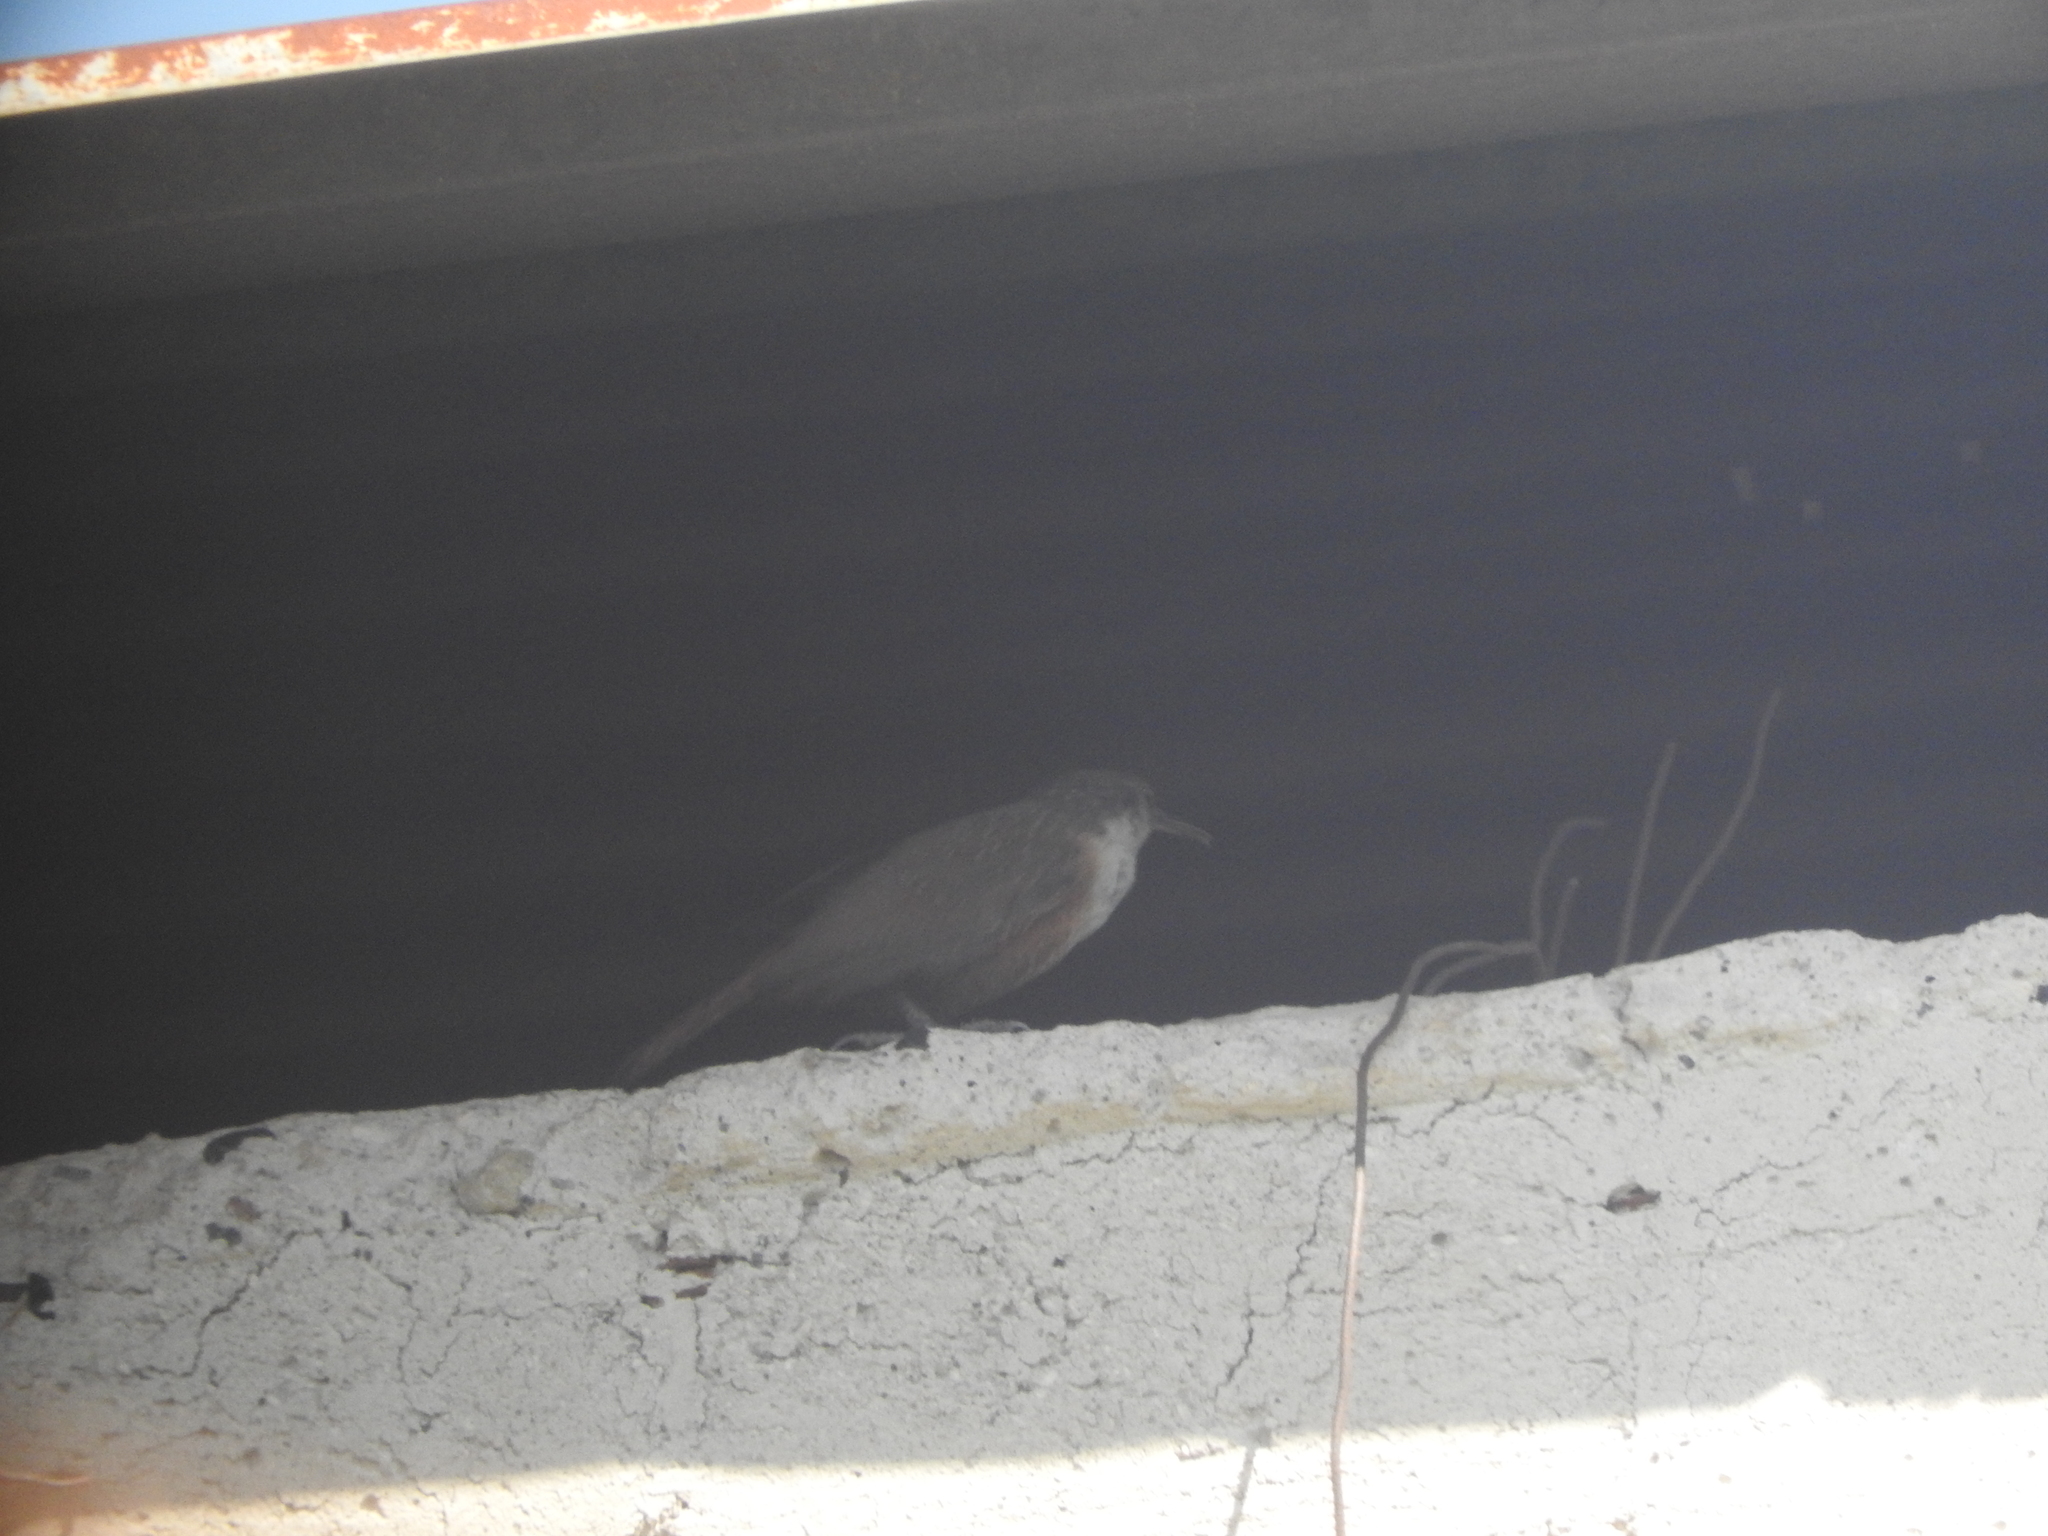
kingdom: Animalia
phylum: Chordata
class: Aves
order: Passeriformes
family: Troglodytidae
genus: Catherpes
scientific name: Catherpes mexicanus
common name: Canyon wren
